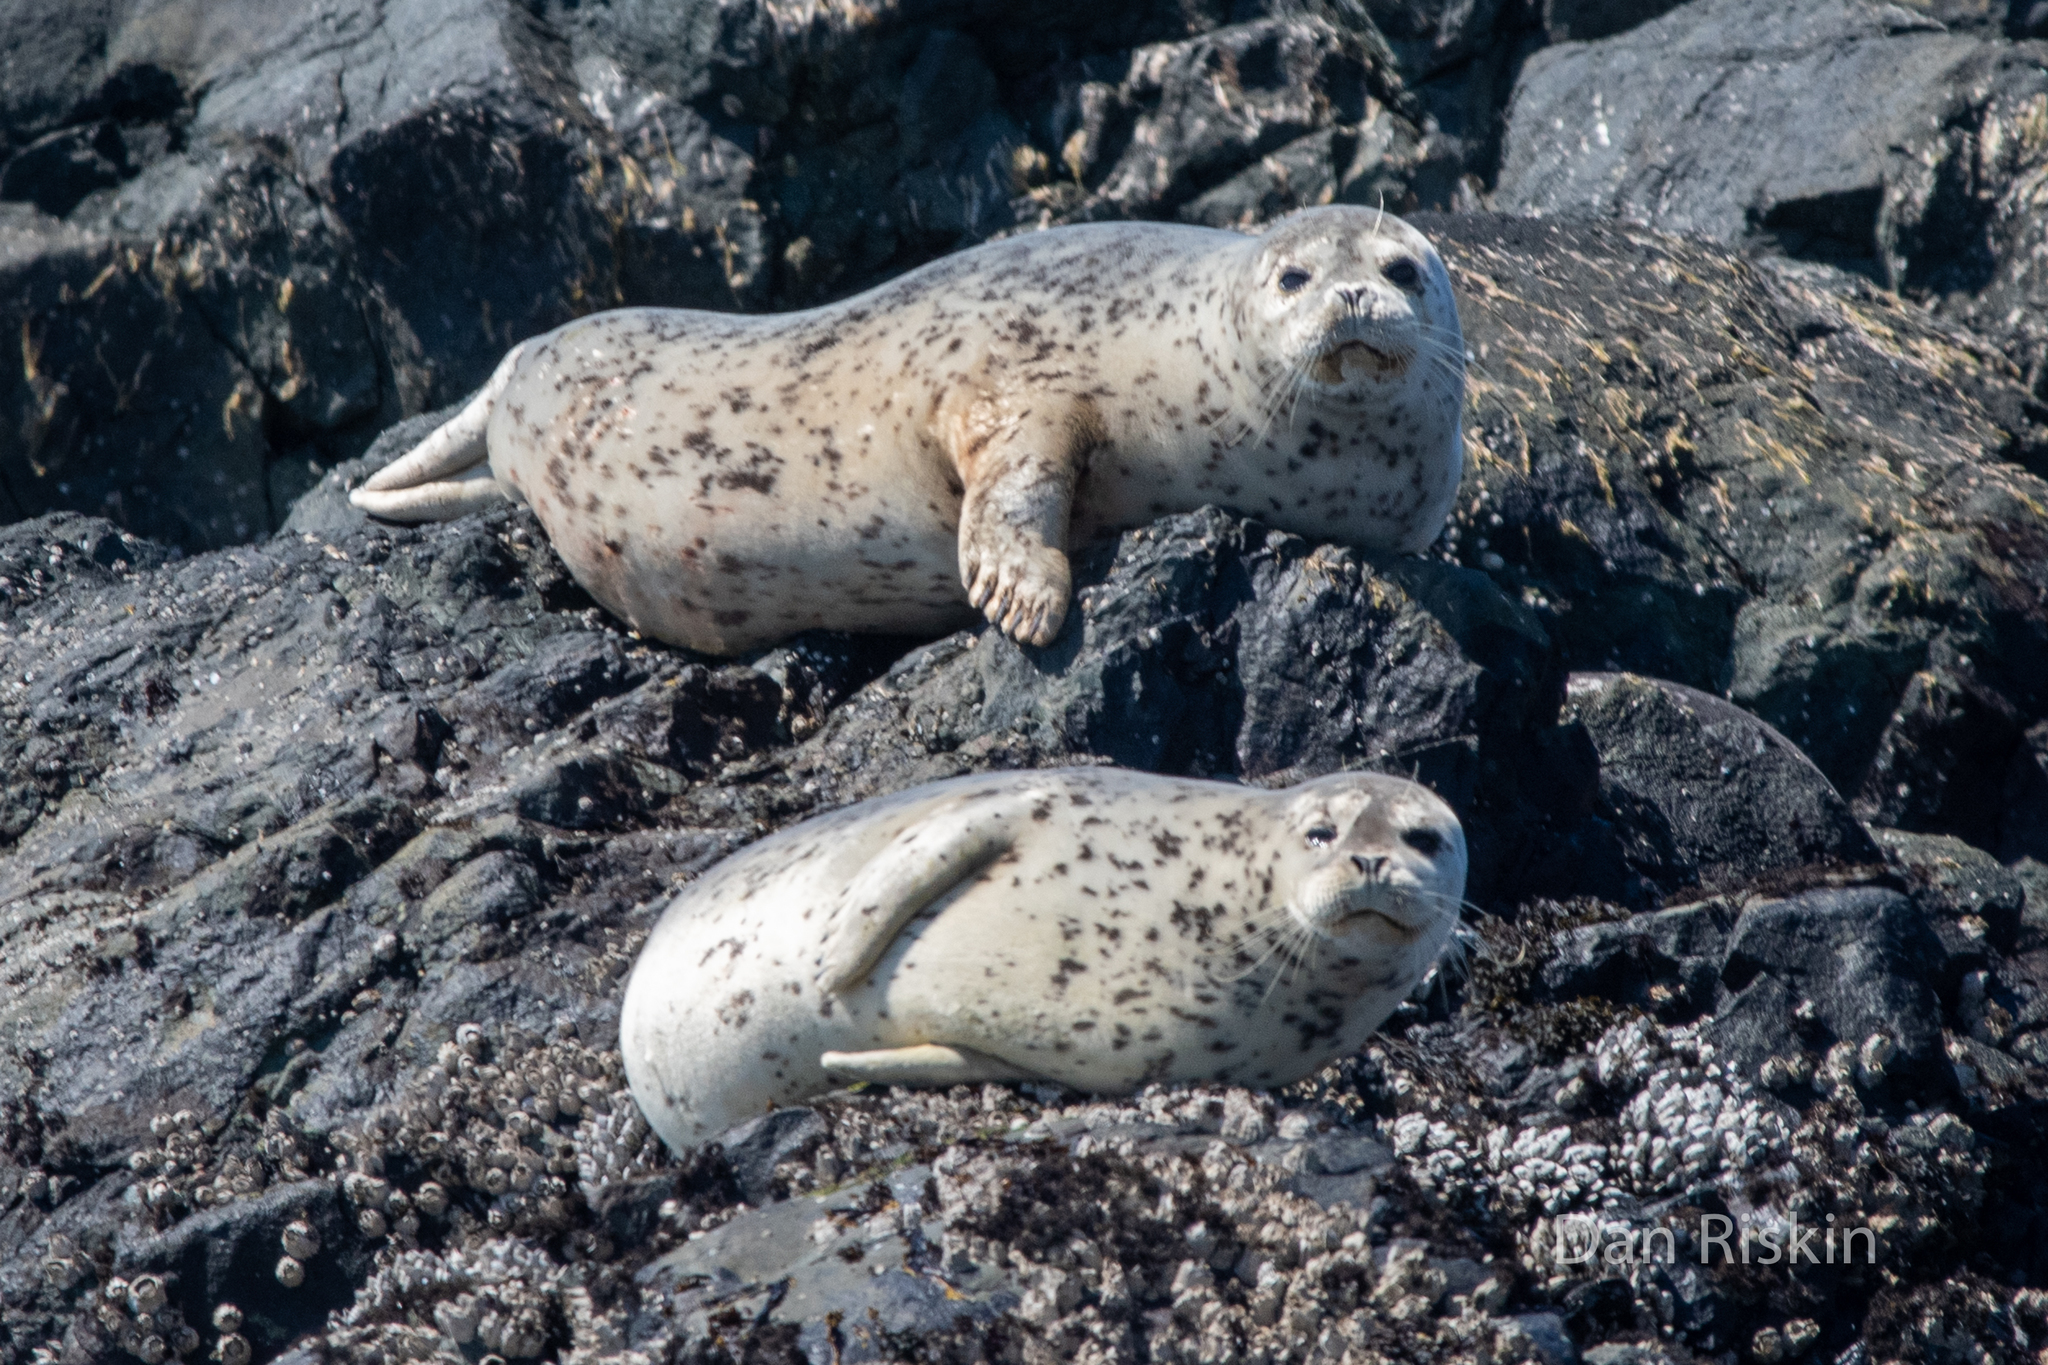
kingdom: Animalia
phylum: Chordata
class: Mammalia
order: Carnivora
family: Phocidae
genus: Phoca
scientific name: Phoca vitulina
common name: Harbor seal
